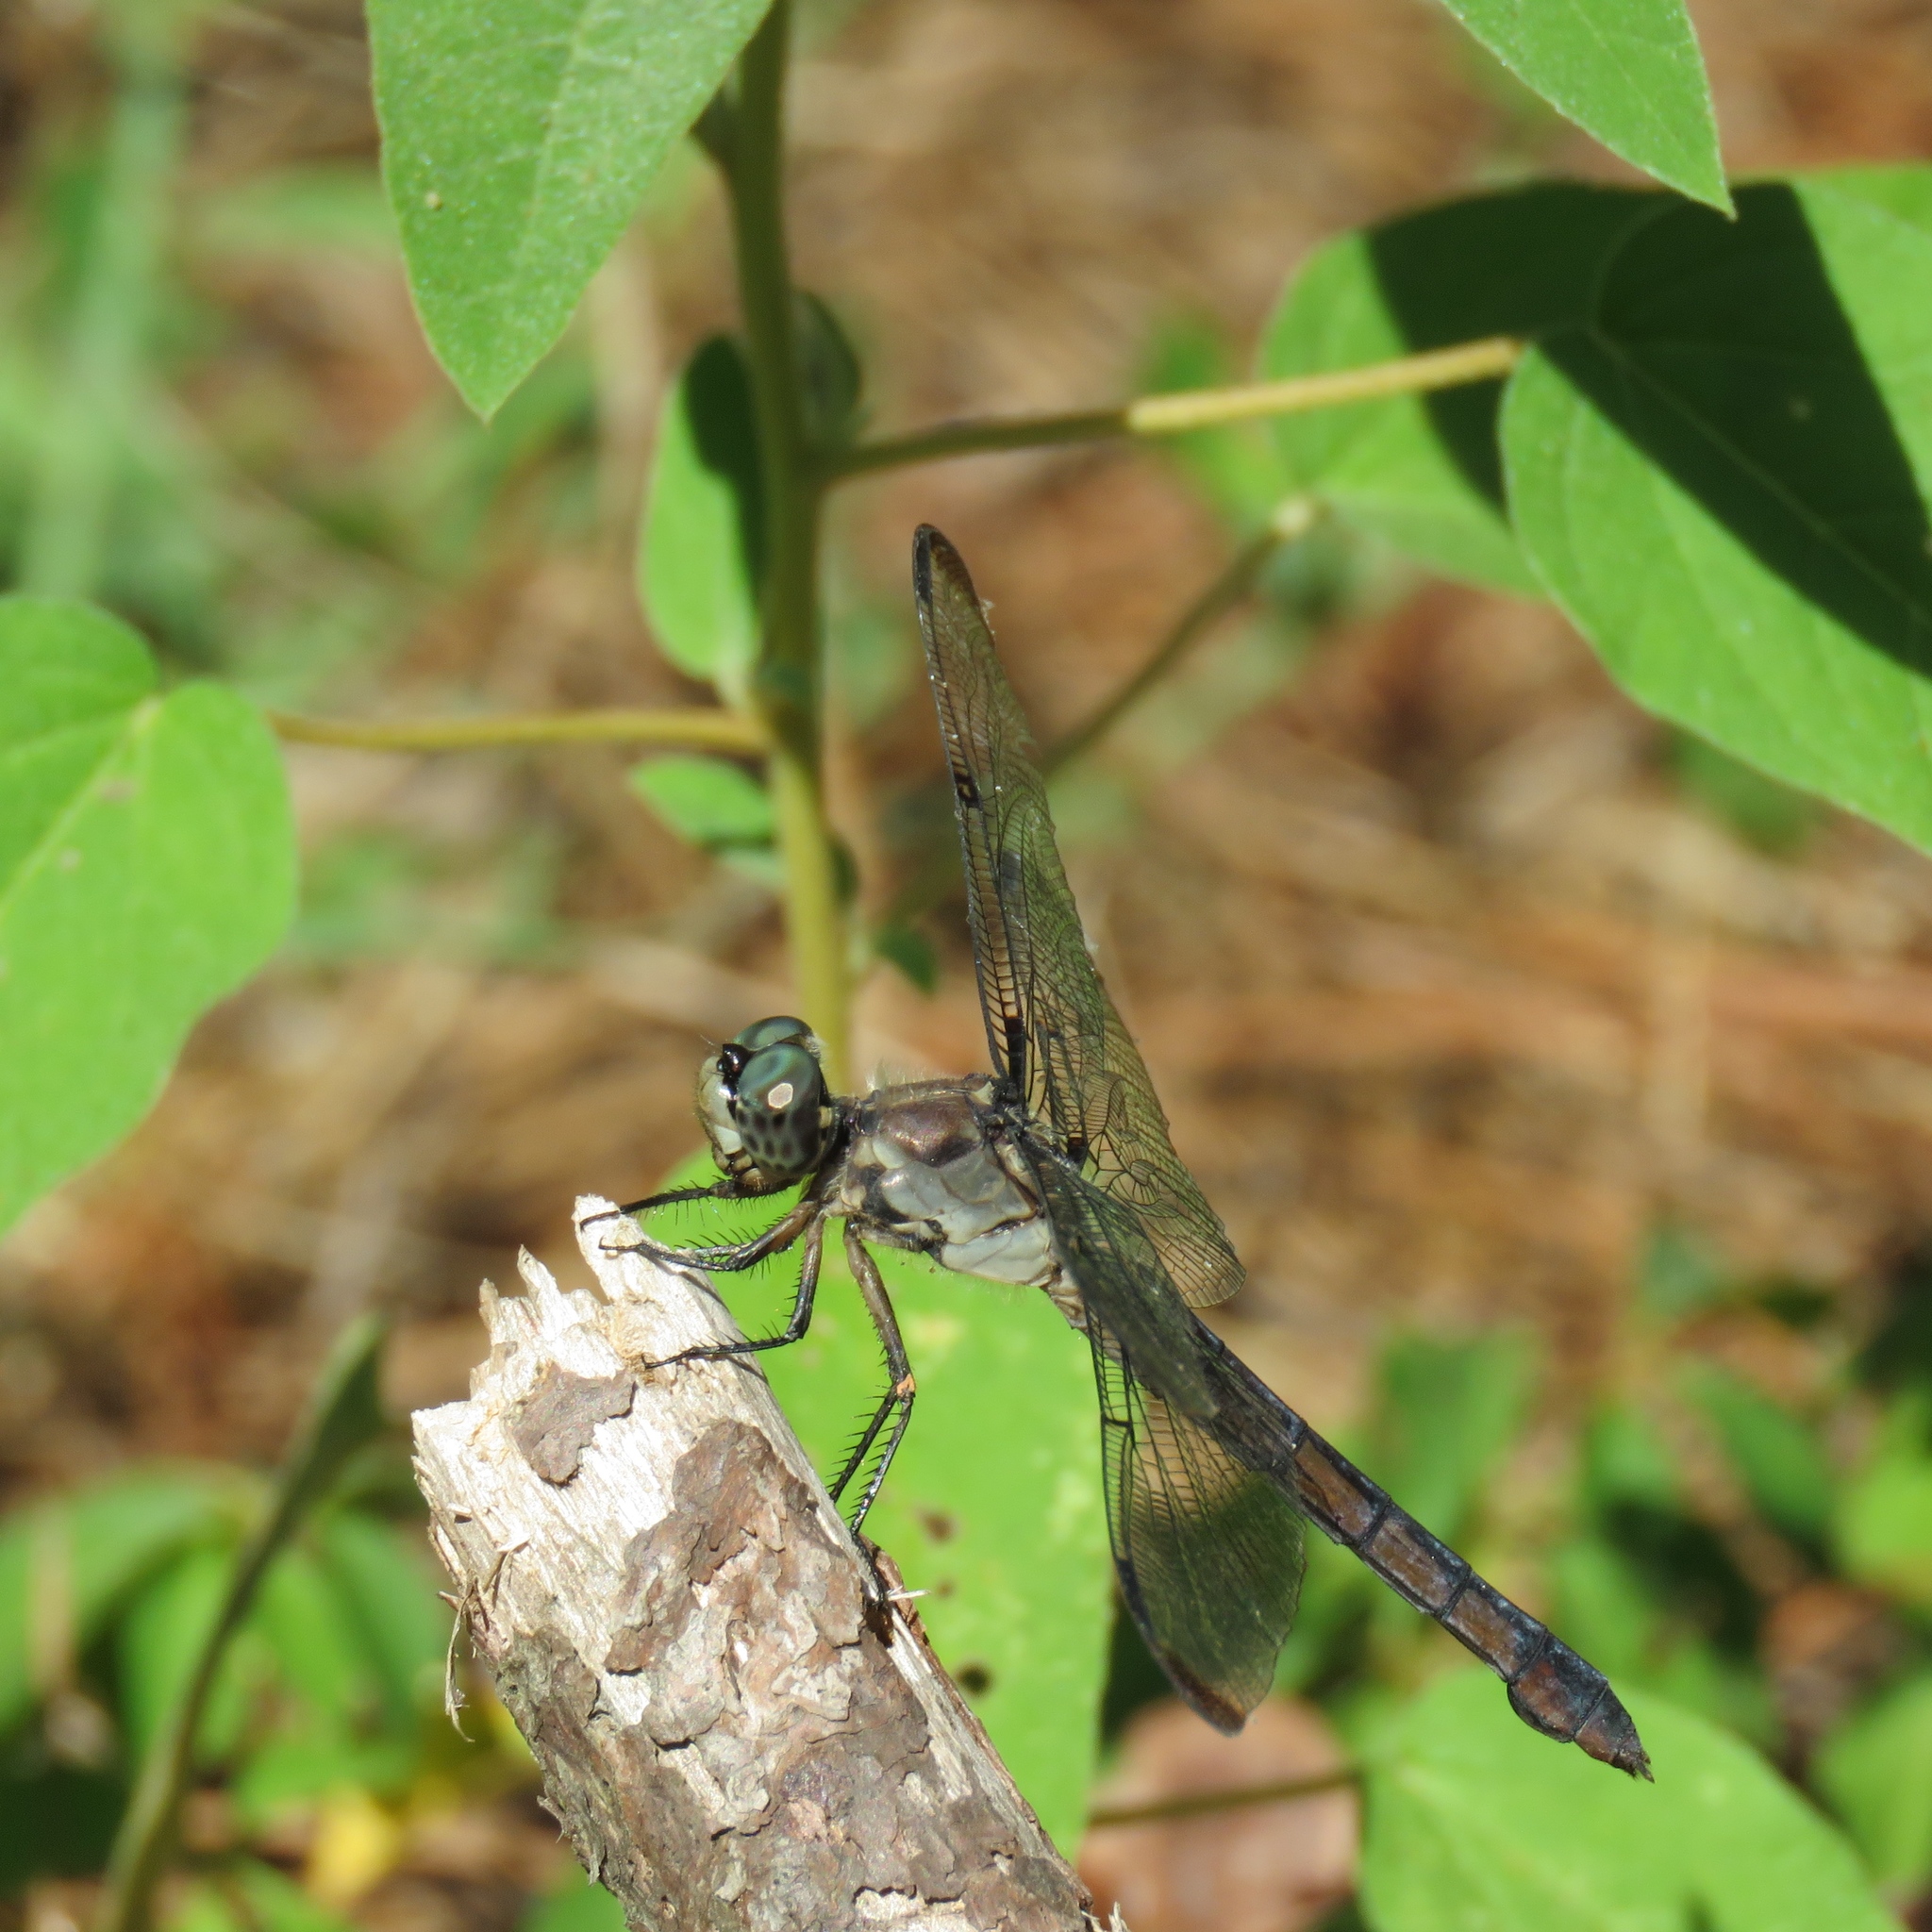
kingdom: Animalia
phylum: Arthropoda
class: Insecta
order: Odonata
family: Libellulidae
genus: Libellula
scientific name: Libellula vibrans
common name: Great blue skimmer
